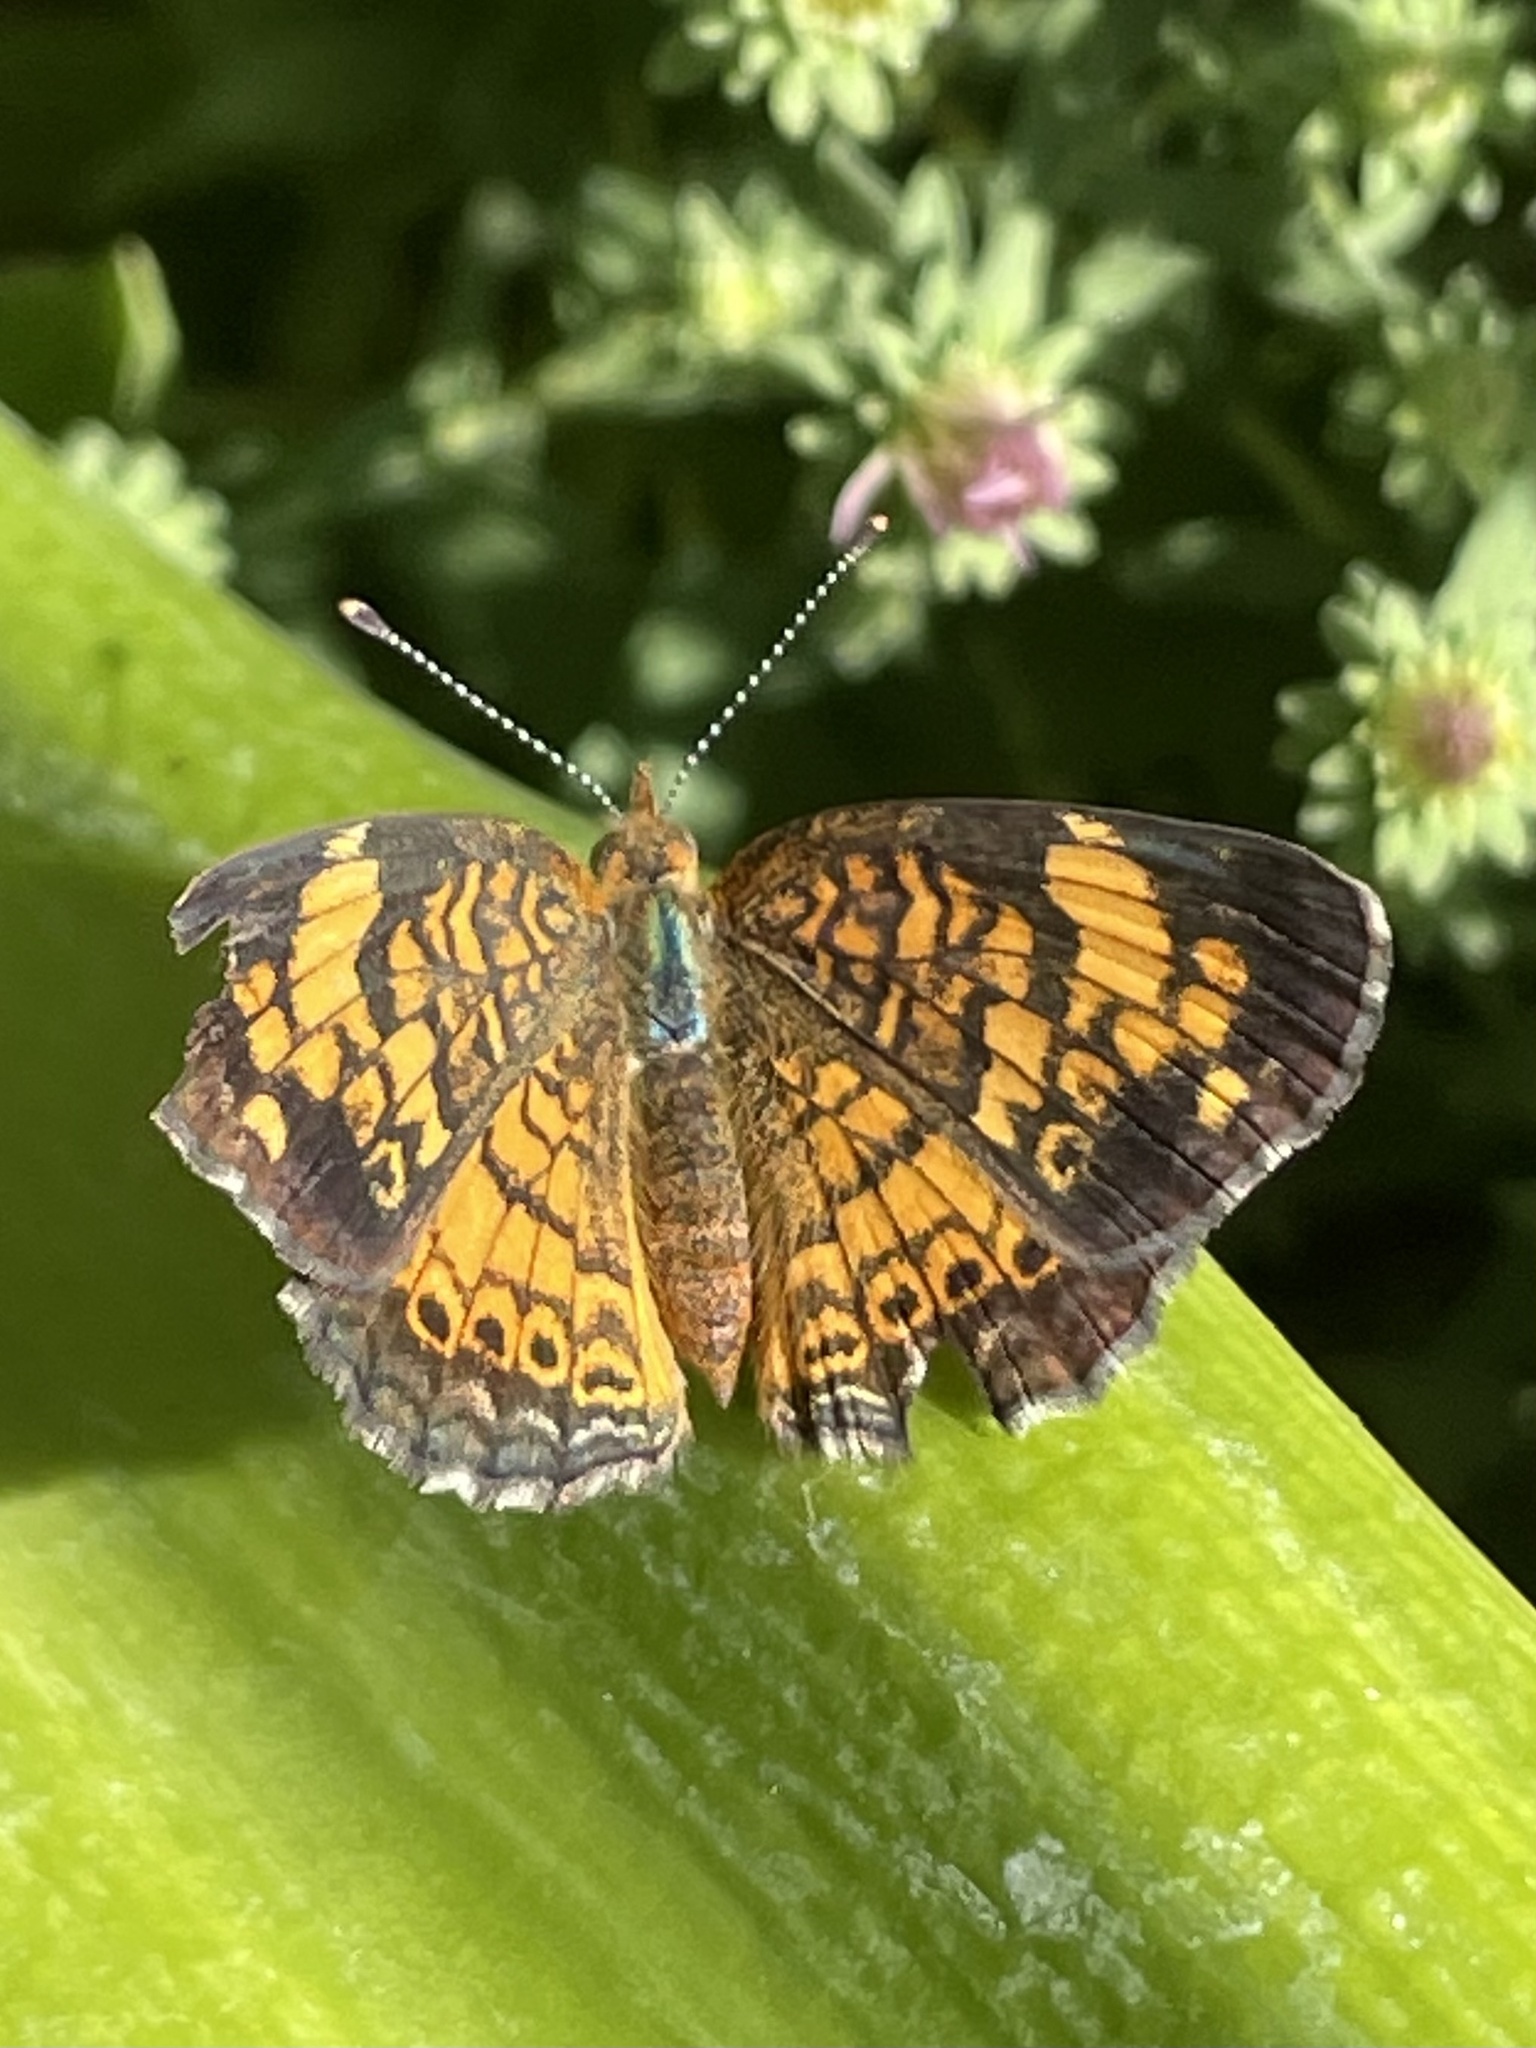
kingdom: Animalia
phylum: Arthropoda
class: Insecta
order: Lepidoptera
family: Nymphalidae
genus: Phyciodes
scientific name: Phyciodes tharos
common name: Pearl crescent
